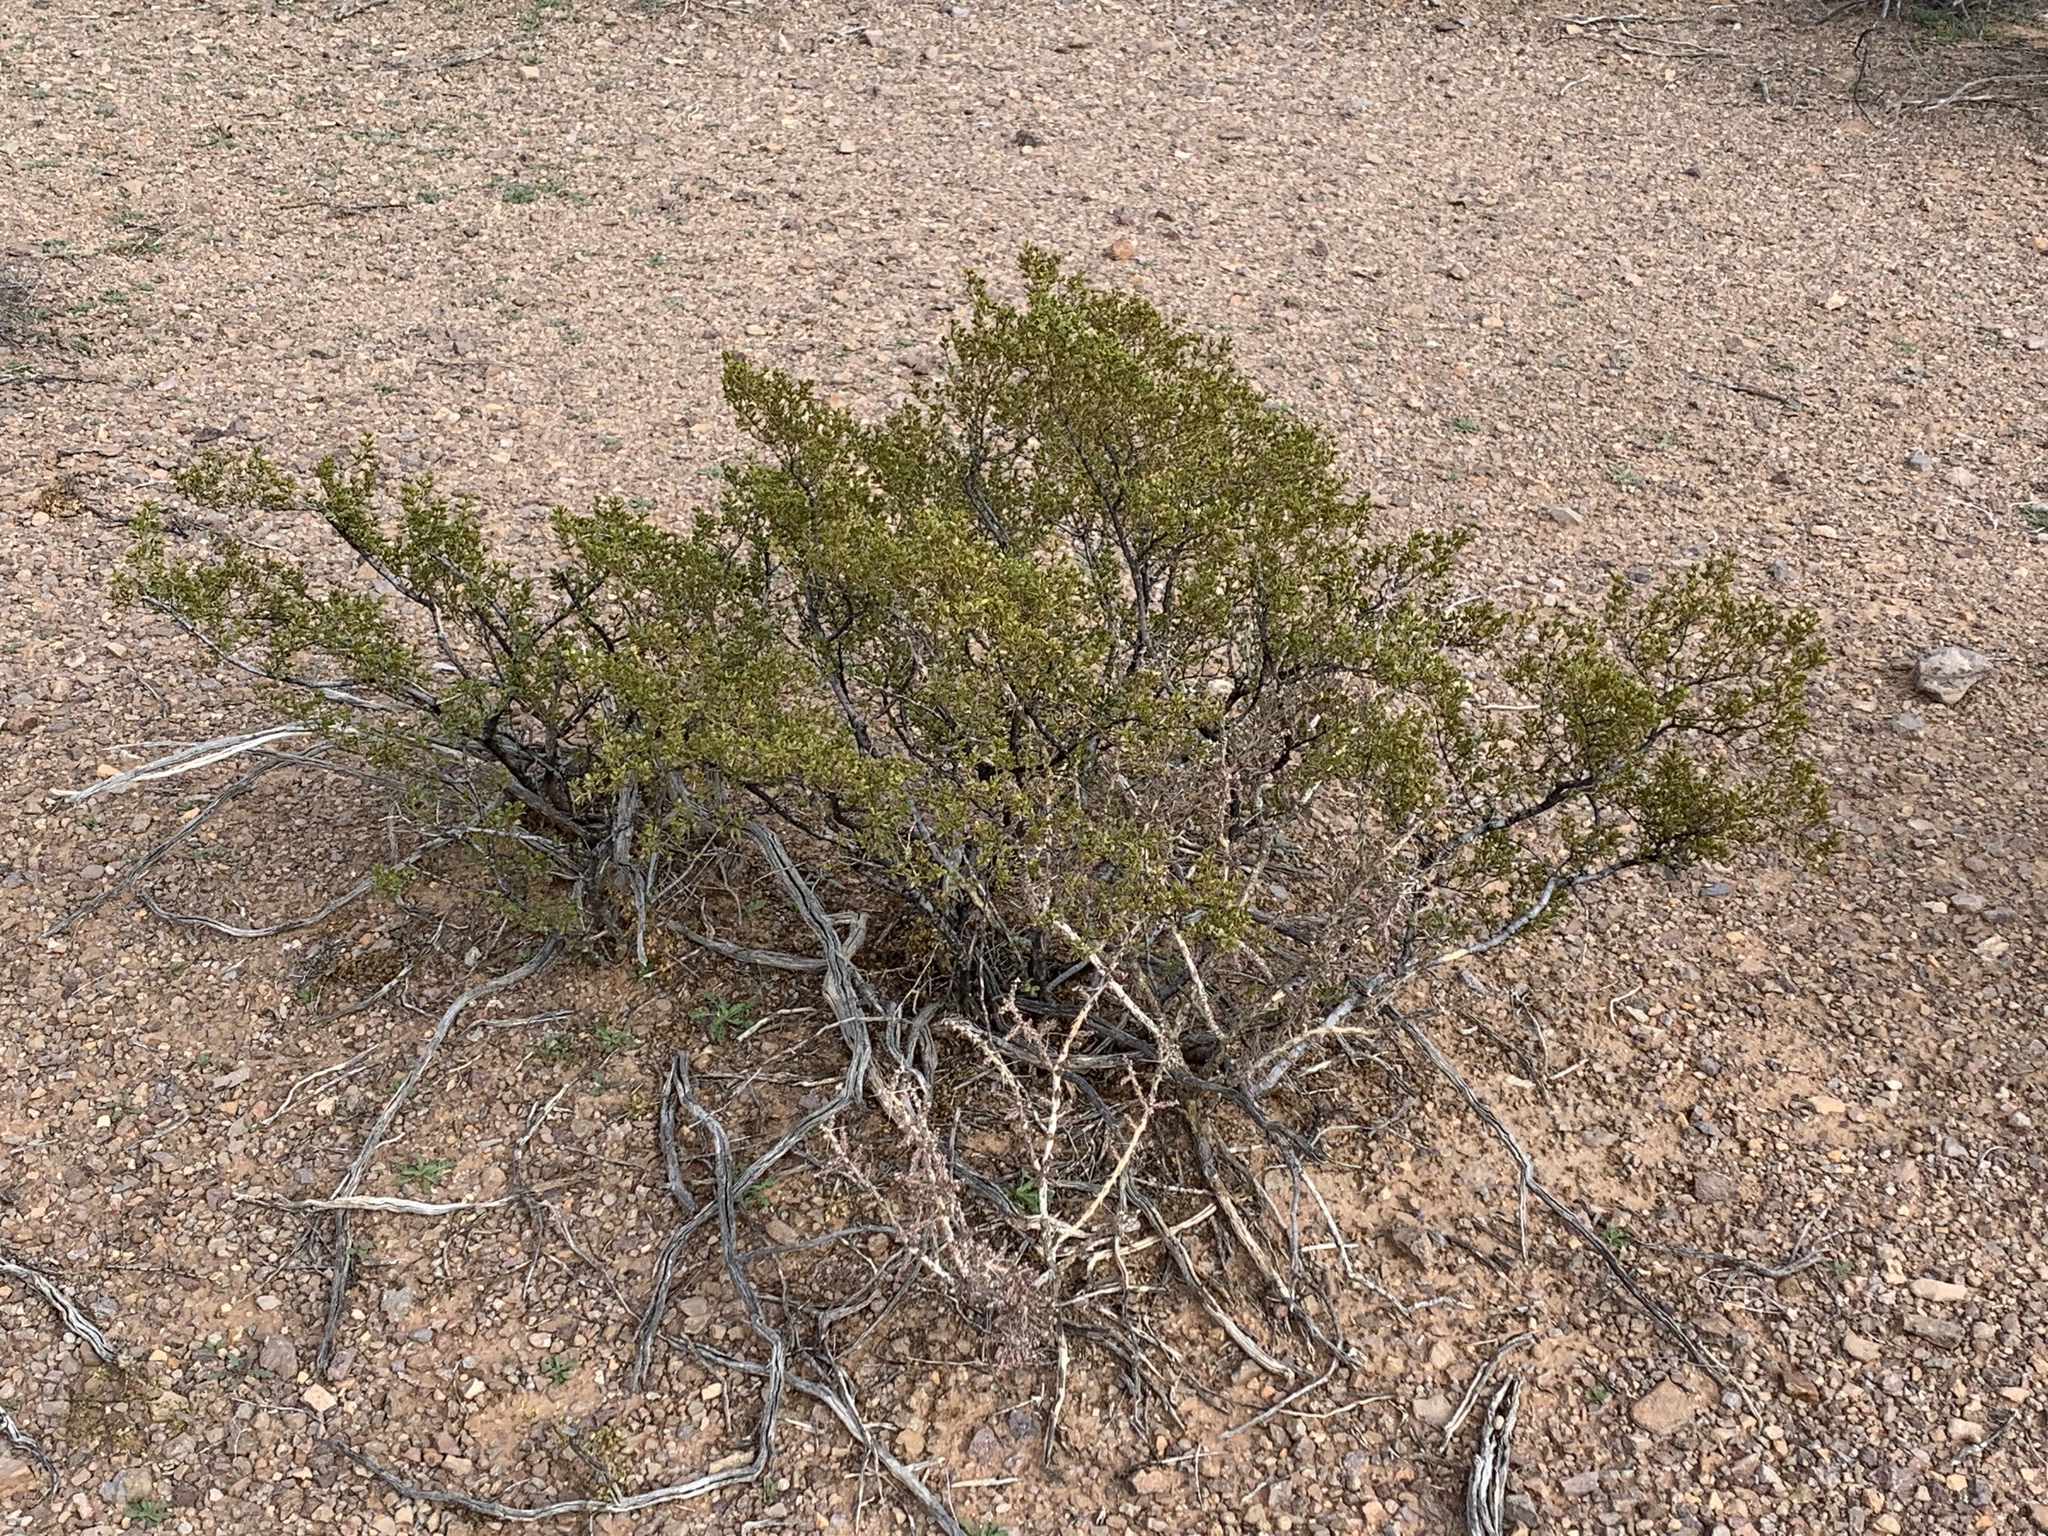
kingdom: Plantae
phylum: Tracheophyta
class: Magnoliopsida
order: Zygophyllales
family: Zygophyllaceae
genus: Larrea
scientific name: Larrea tridentata
